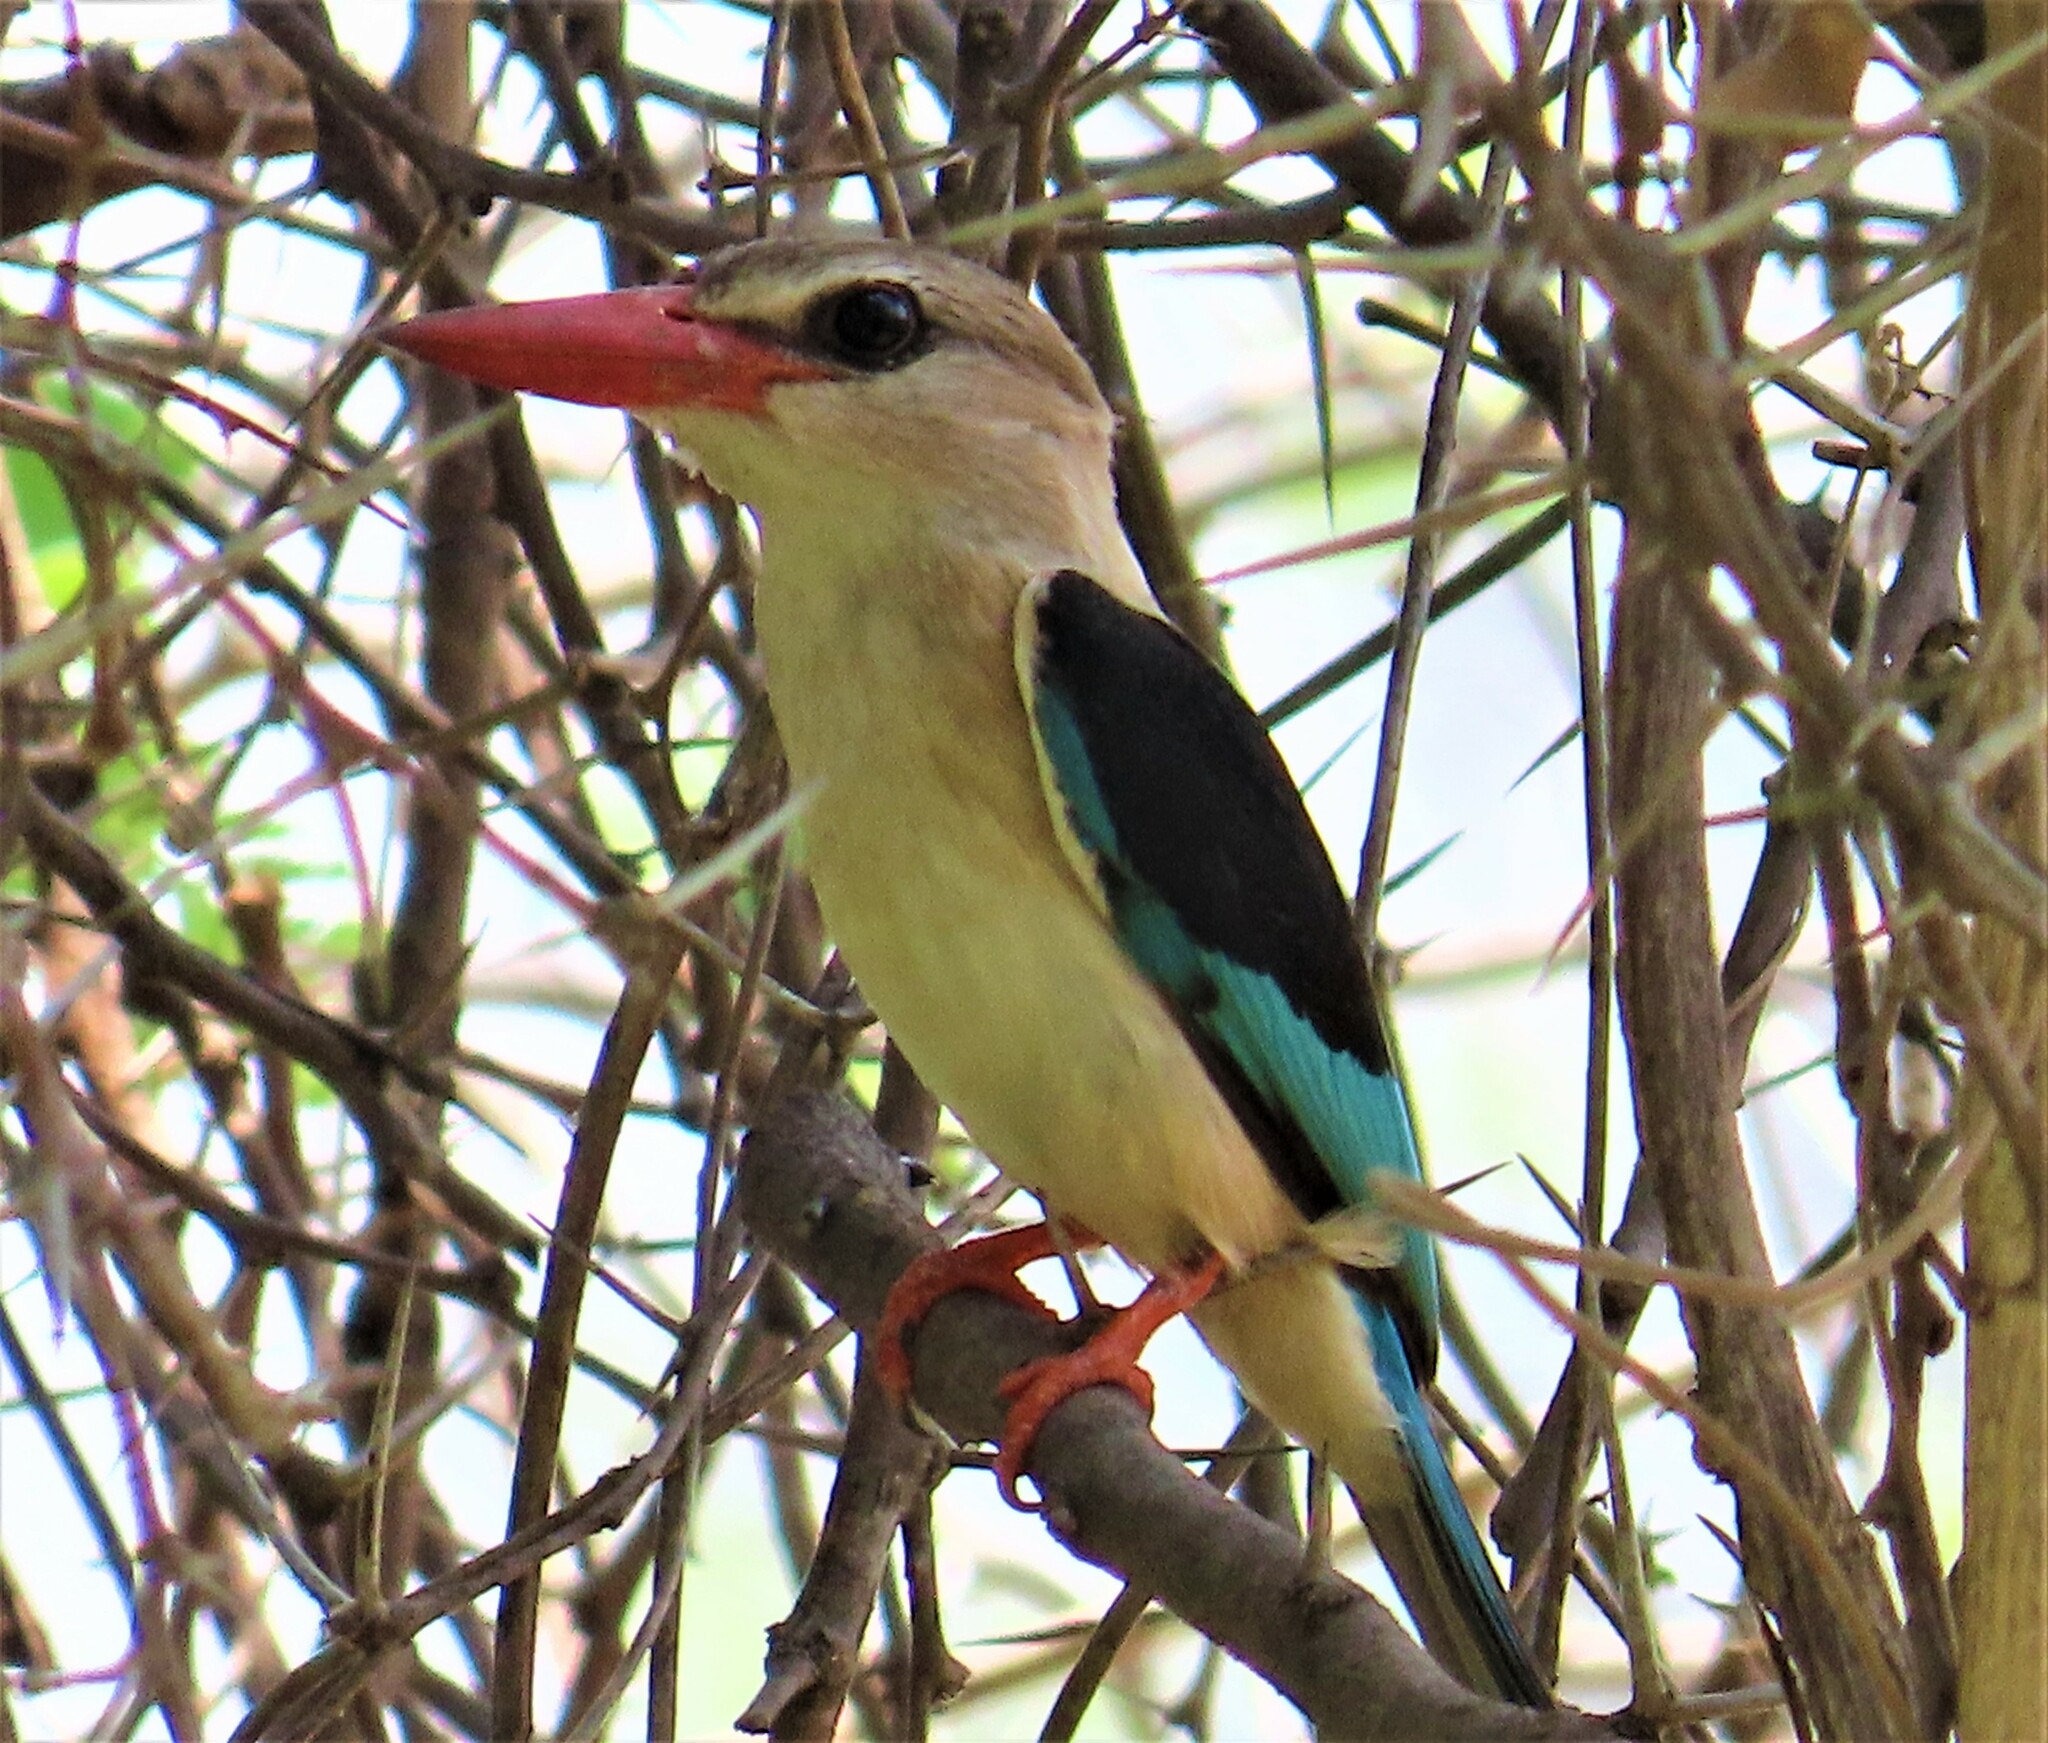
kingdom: Animalia
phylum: Chordata
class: Aves
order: Coraciiformes
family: Alcedinidae
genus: Halcyon
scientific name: Halcyon albiventris
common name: Brown-hooded kingfisher
